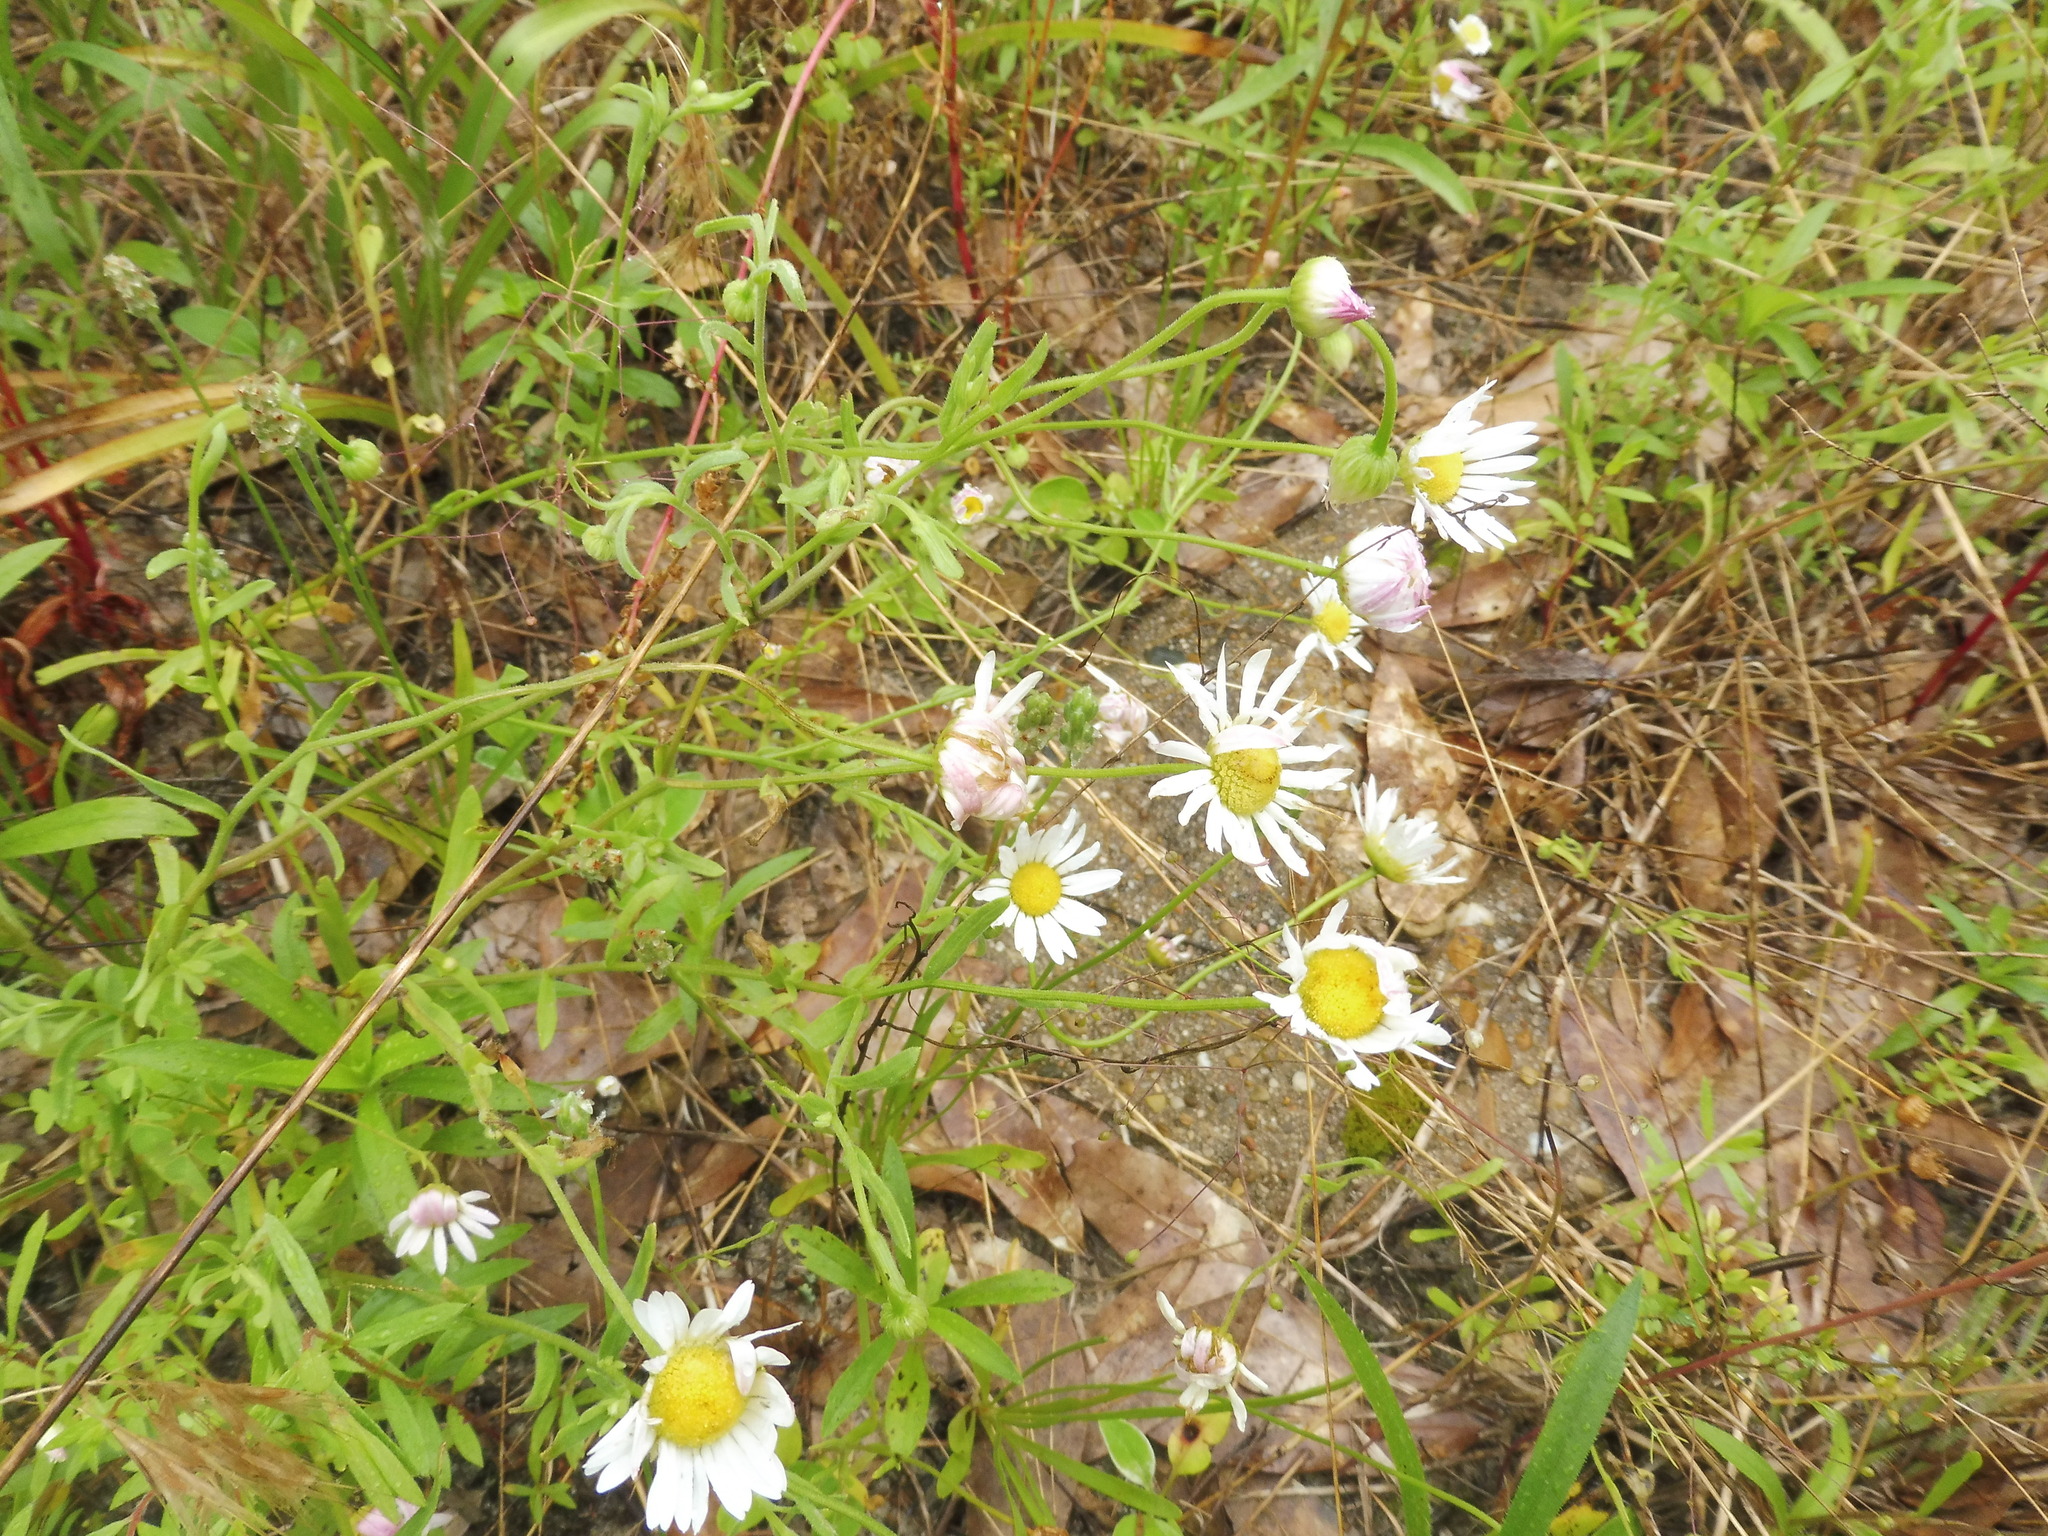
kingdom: Plantae
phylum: Tracheophyta
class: Magnoliopsida
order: Asterales
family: Asteraceae
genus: Aphanostephus
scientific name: Aphanostephus skirrhobasis
